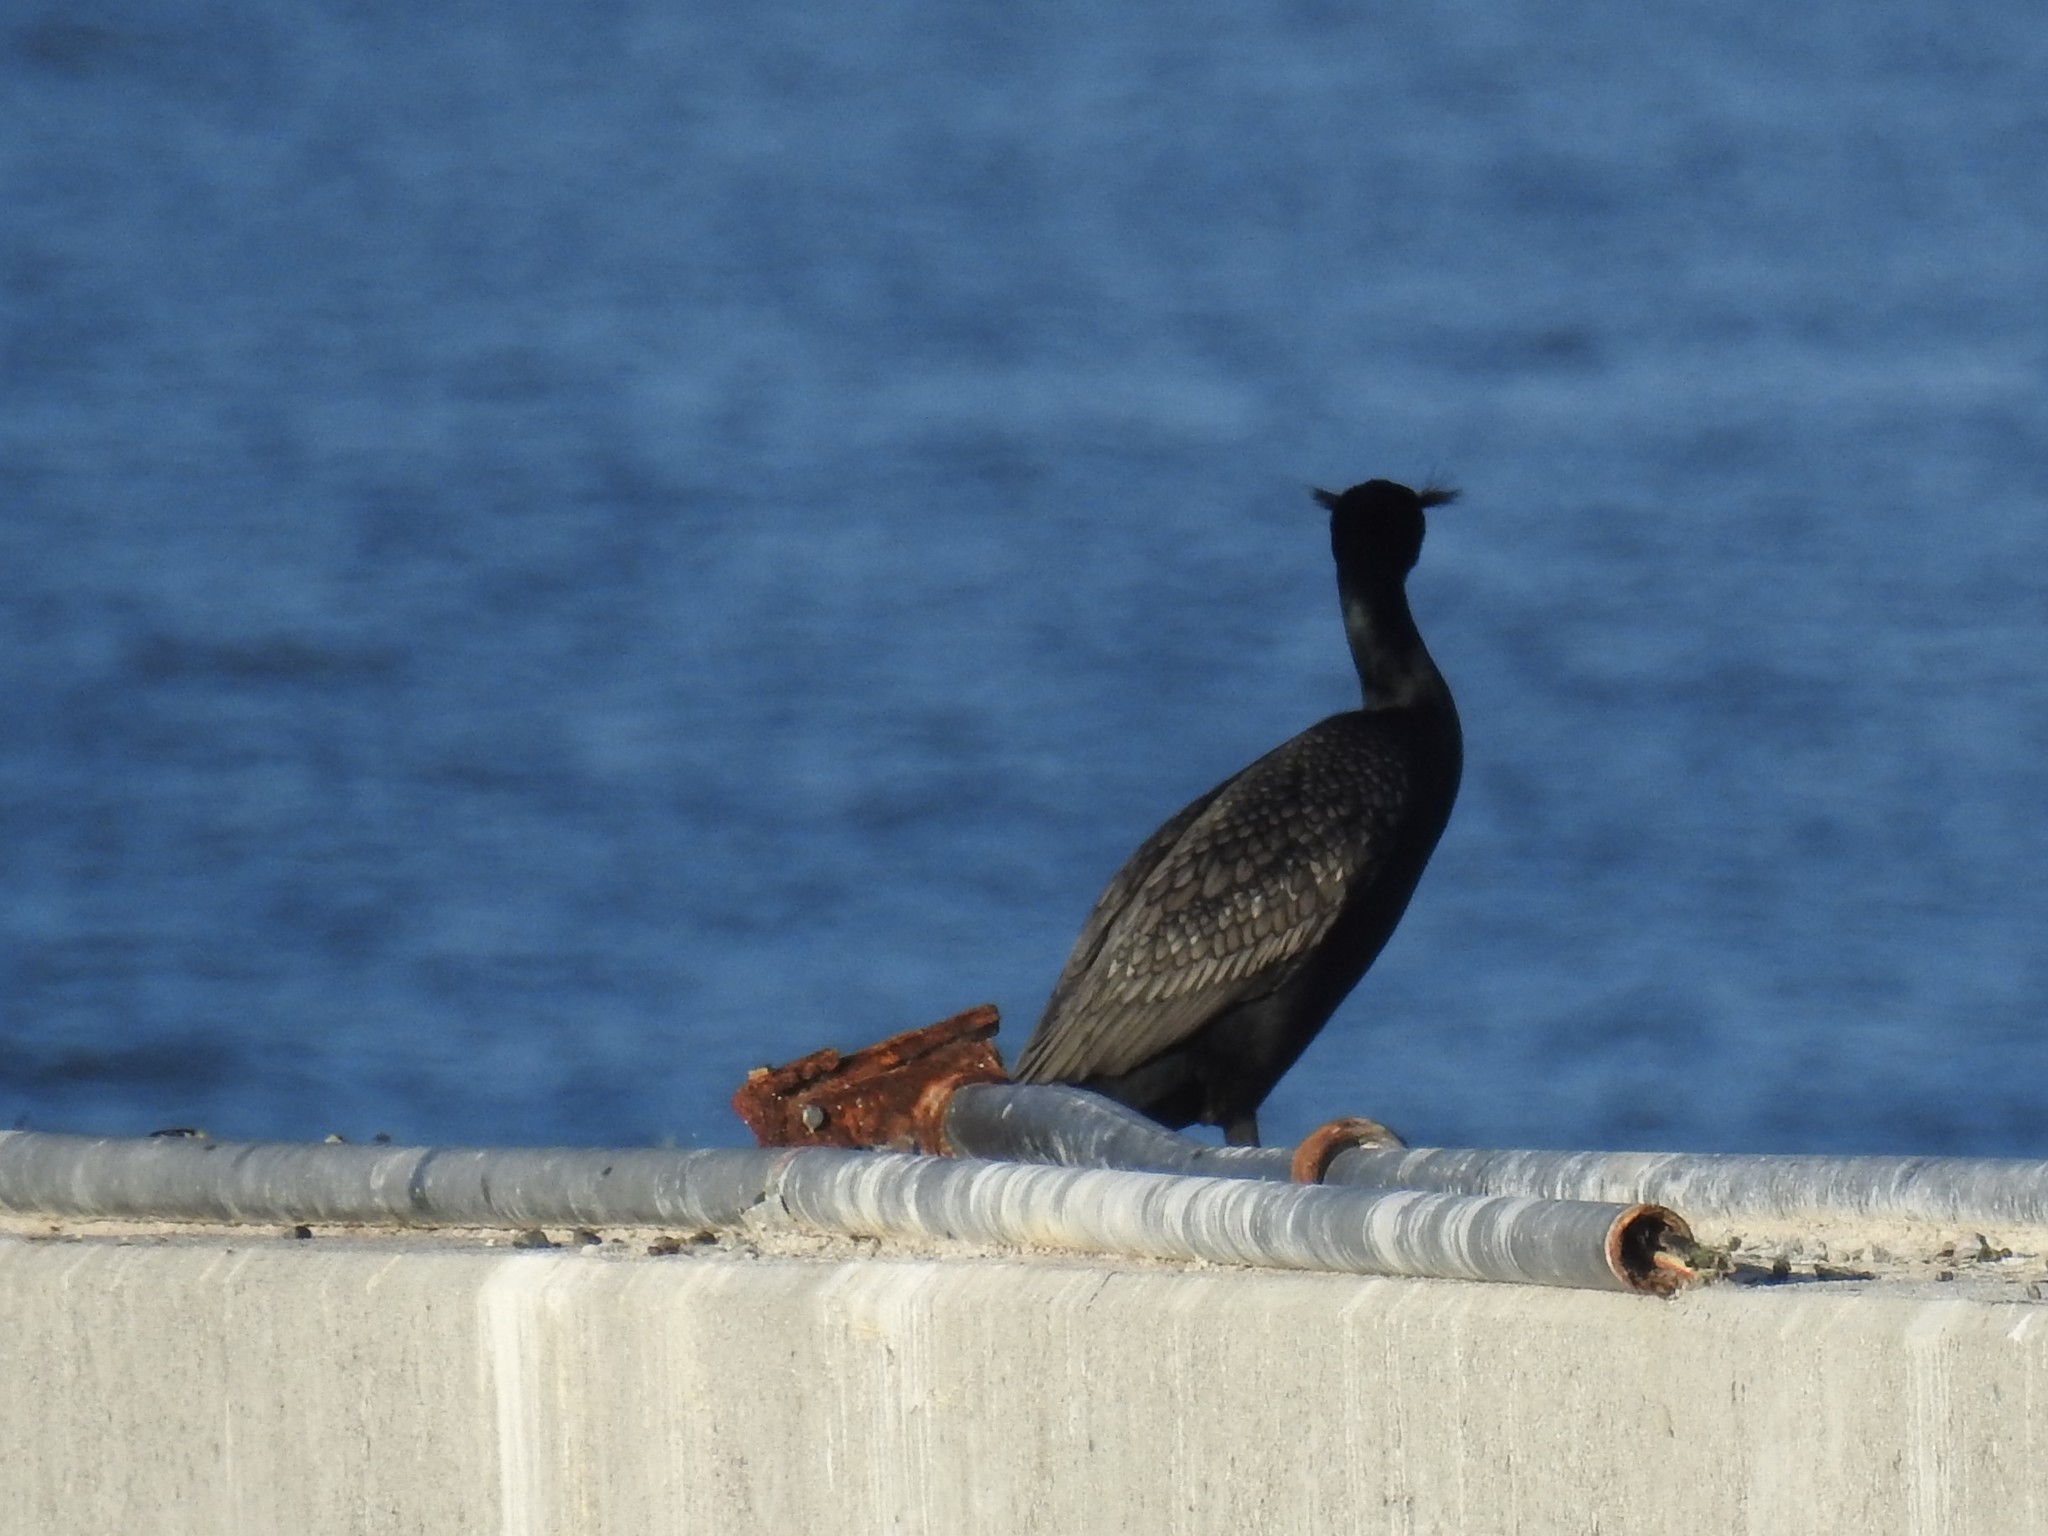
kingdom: Animalia
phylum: Chordata
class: Aves
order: Suliformes
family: Phalacrocoracidae
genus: Phalacrocorax
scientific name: Phalacrocorax auritus
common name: Double-crested cormorant
